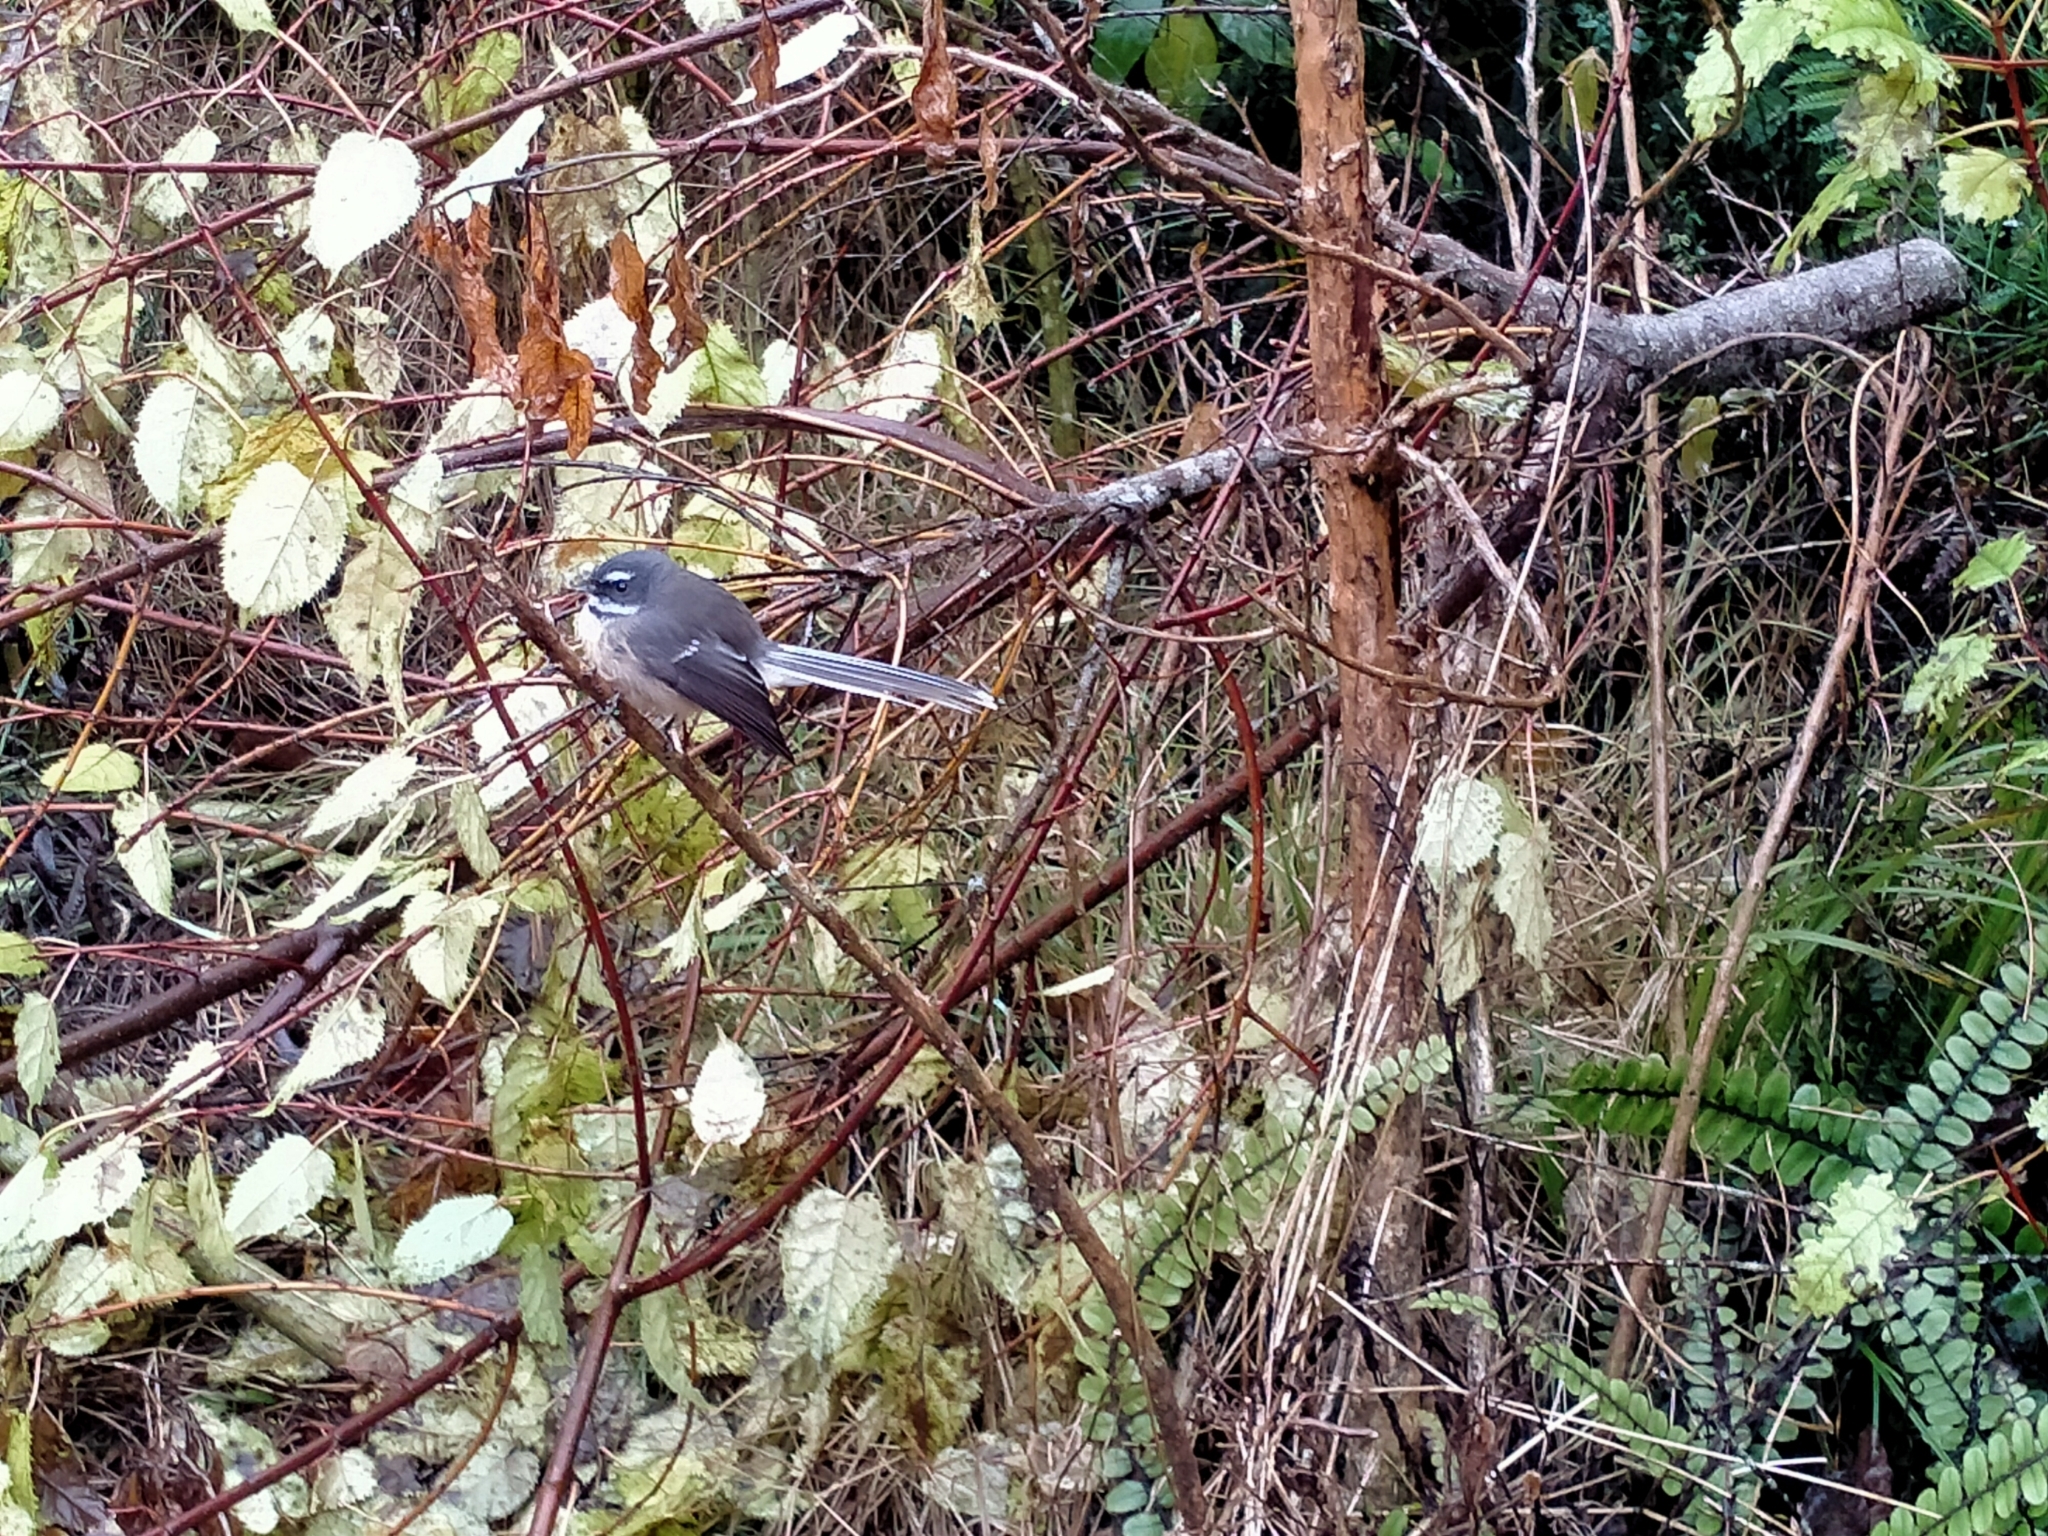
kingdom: Animalia
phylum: Chordata
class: Aves
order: Passeriformes
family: Rhipiduridae
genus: Rhipidura
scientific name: Rhipidura fuliginosa
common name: New zealand fantail
